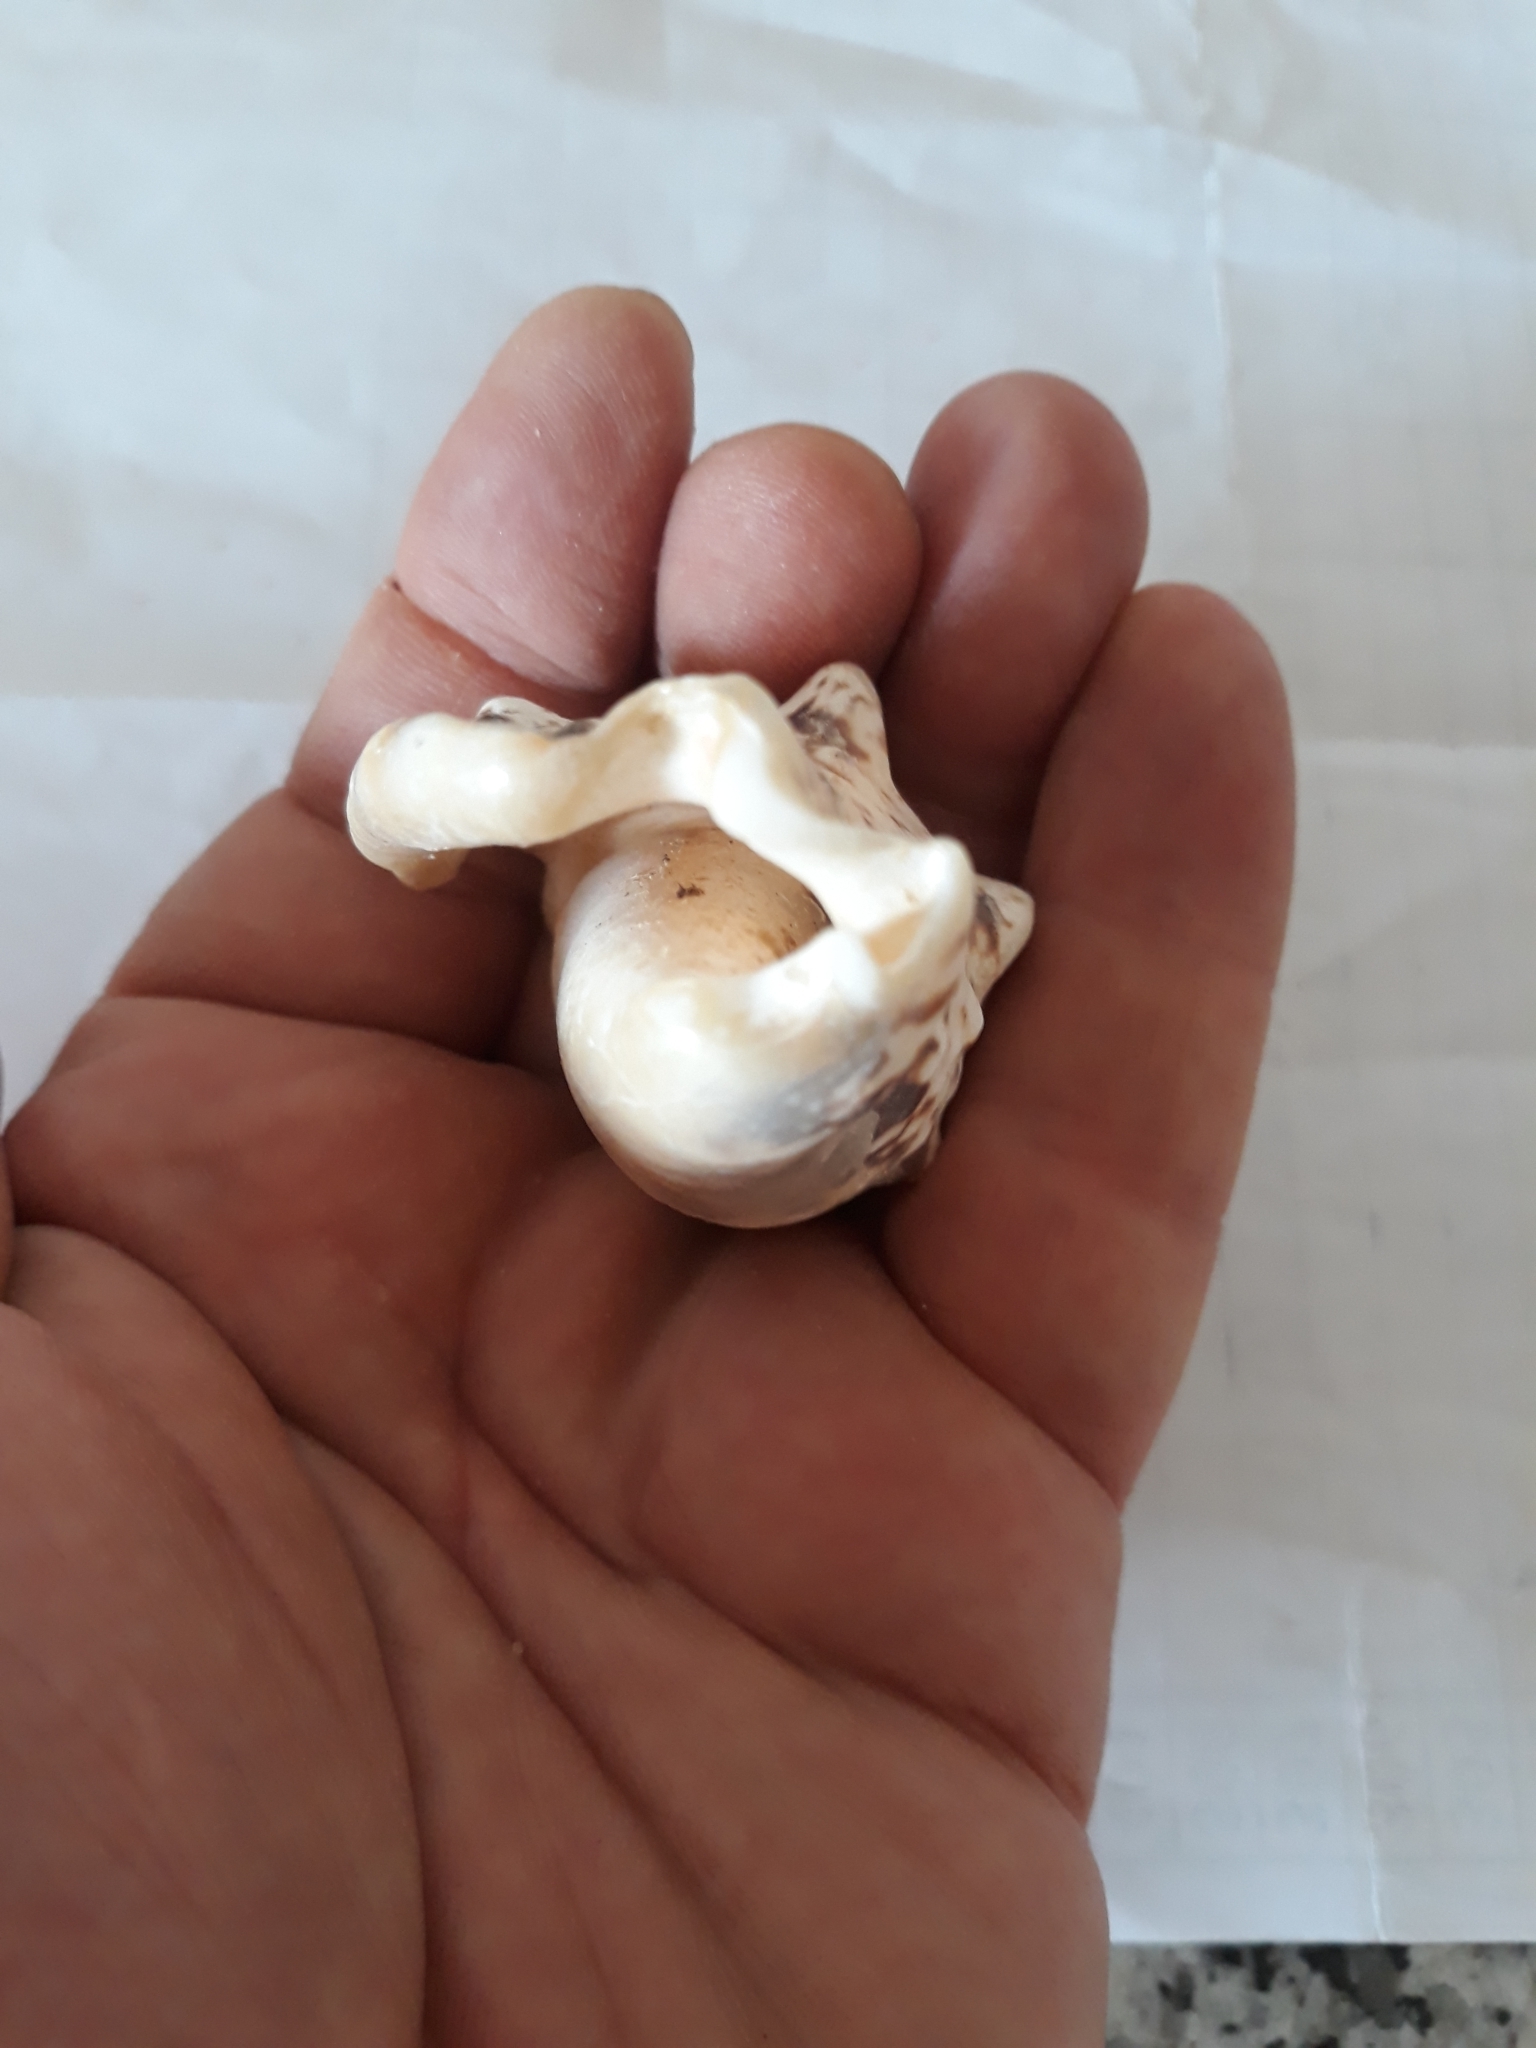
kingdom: Animalia
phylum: Mollusca
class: Gastropoda
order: Littorinimorpha
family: Strombidae
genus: Lentigo
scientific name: Lentigo lentiginosus
